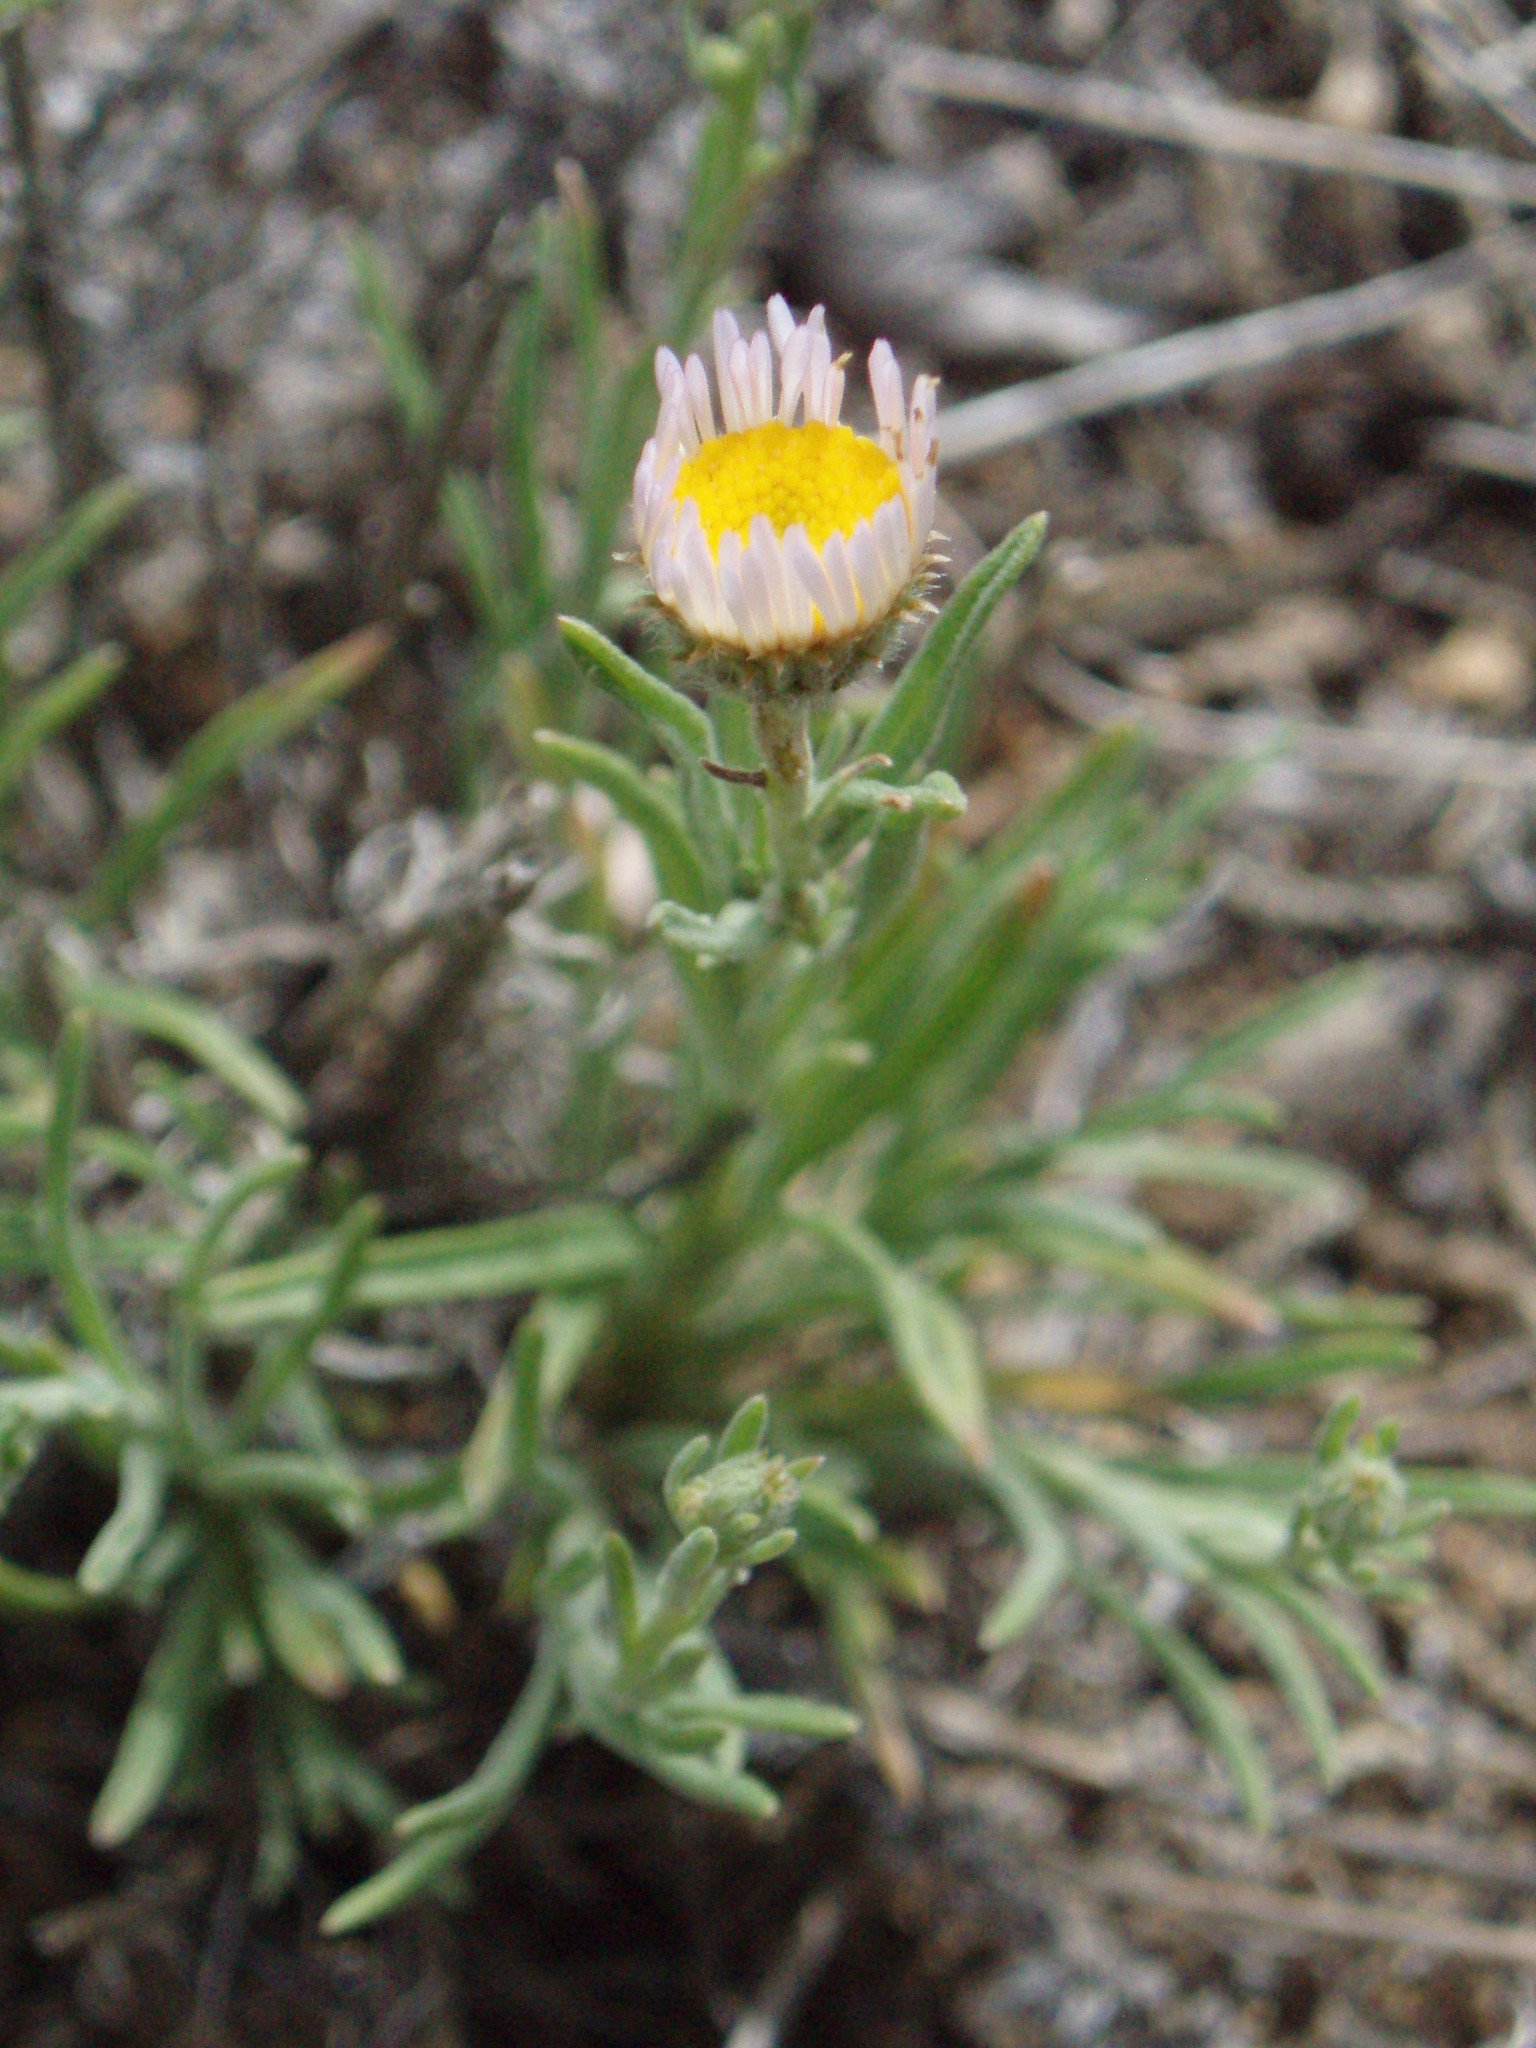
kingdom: Plantae
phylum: Tracheophyta
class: Magnoliopsida
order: Asterales
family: Asteraceae
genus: Erigeron
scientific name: Erigeron filifolius
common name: Threadleaf fleabane
